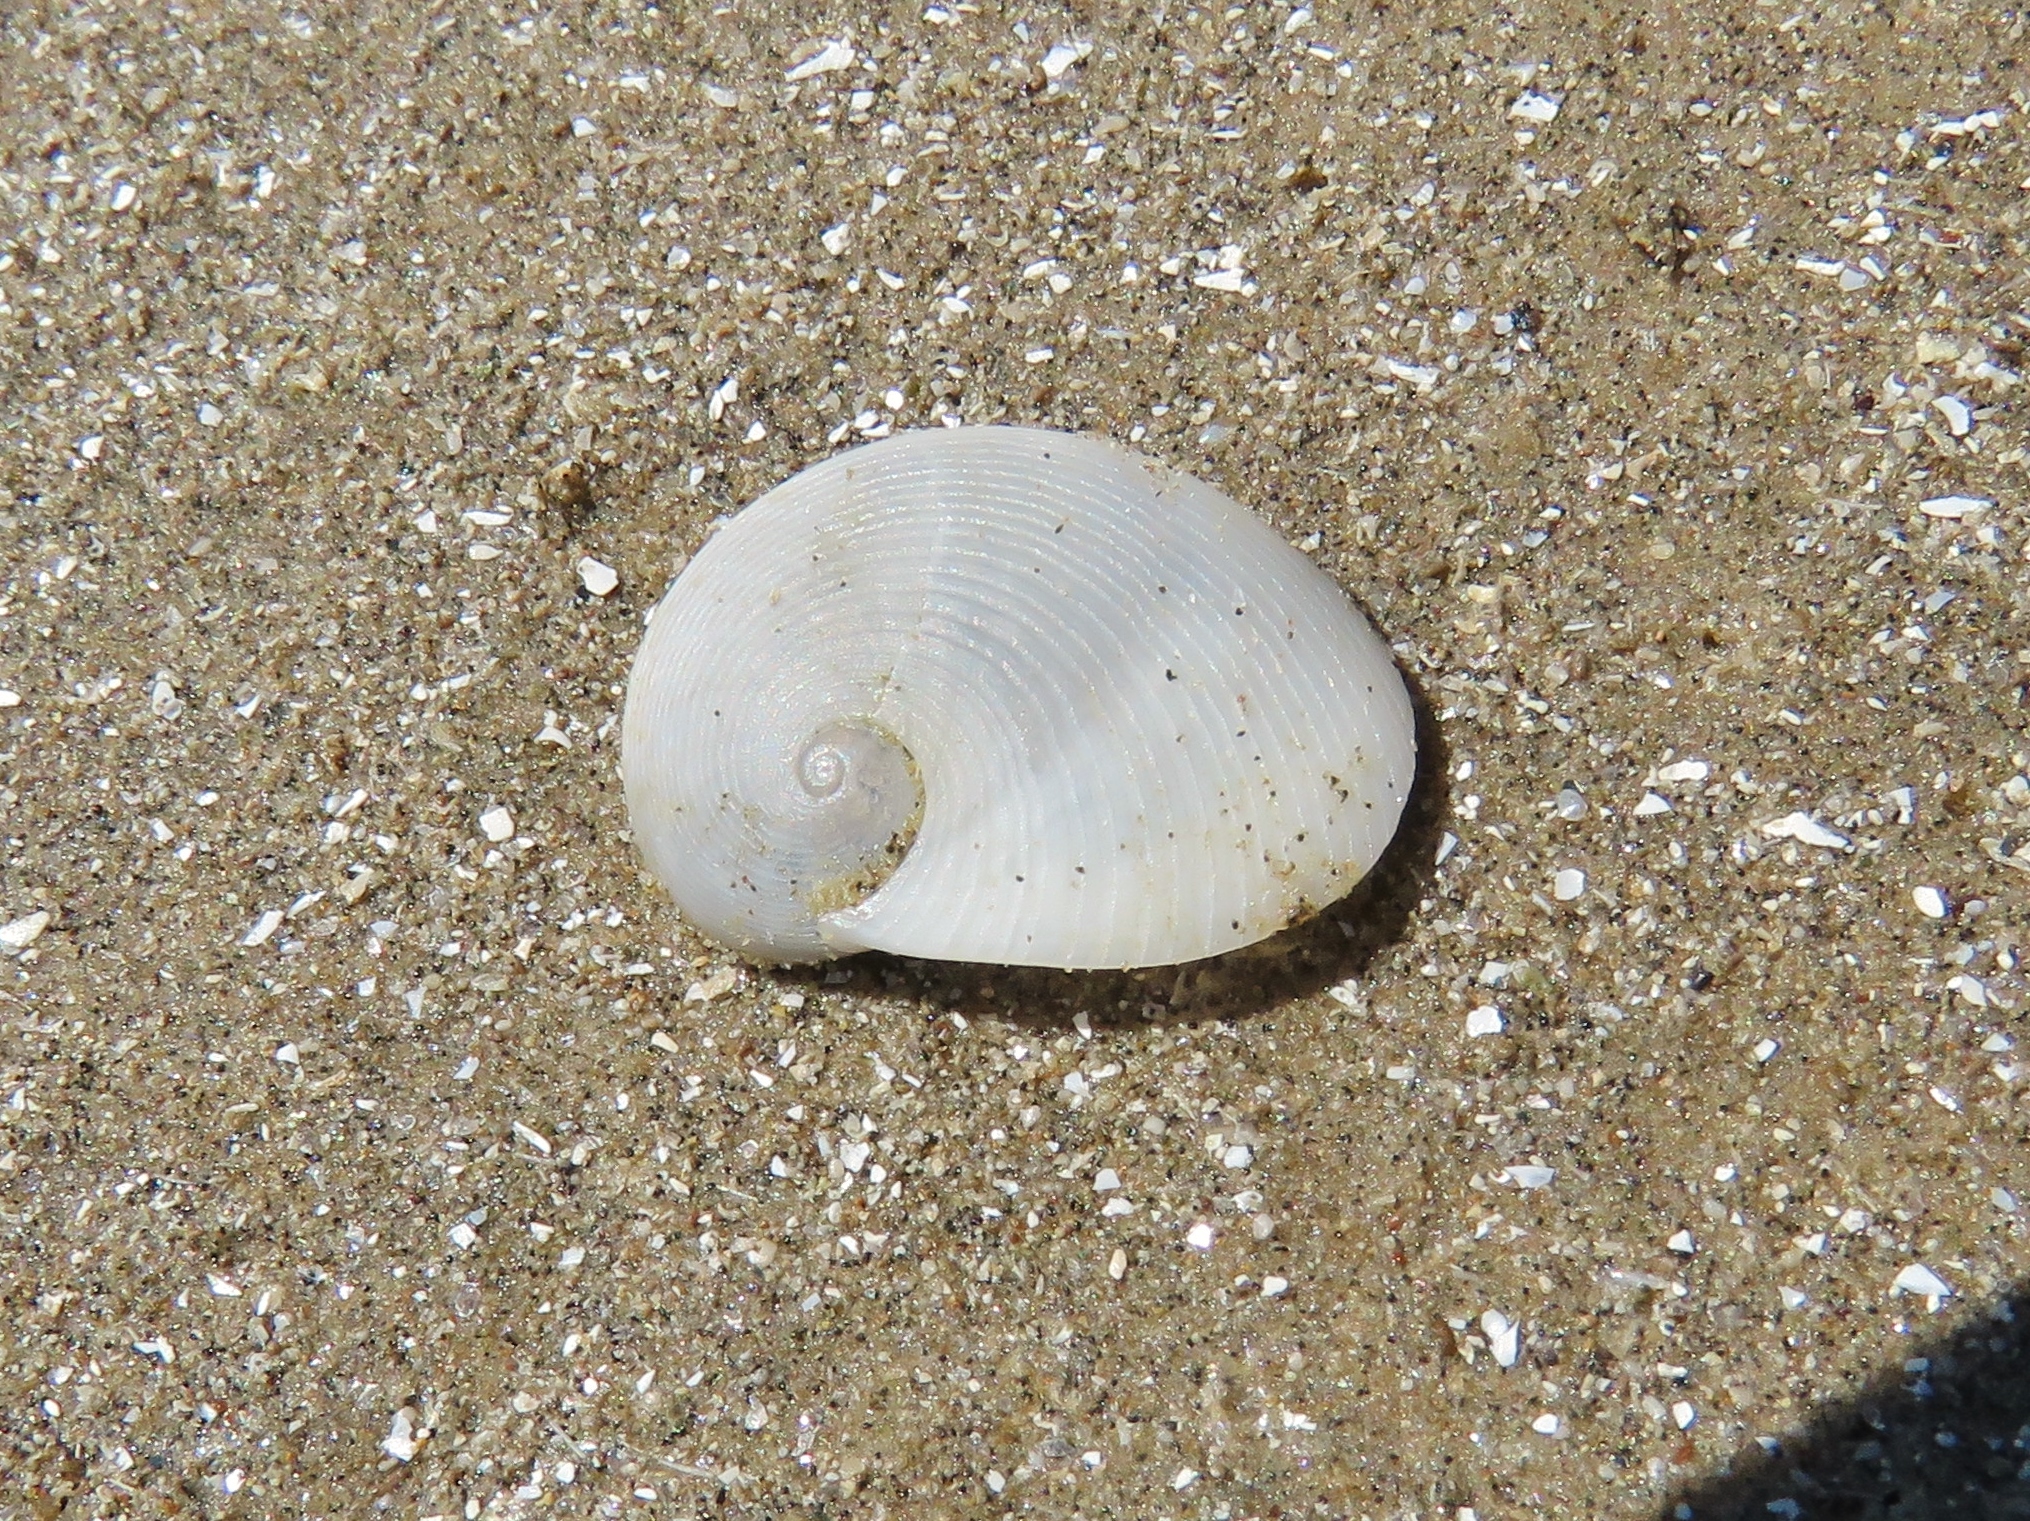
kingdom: Animalia
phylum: Mollusca
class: Gastropoda
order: Littorinimorpha
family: Naticidae
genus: Sinum
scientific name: Sinum perspectivum
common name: White baby ear
